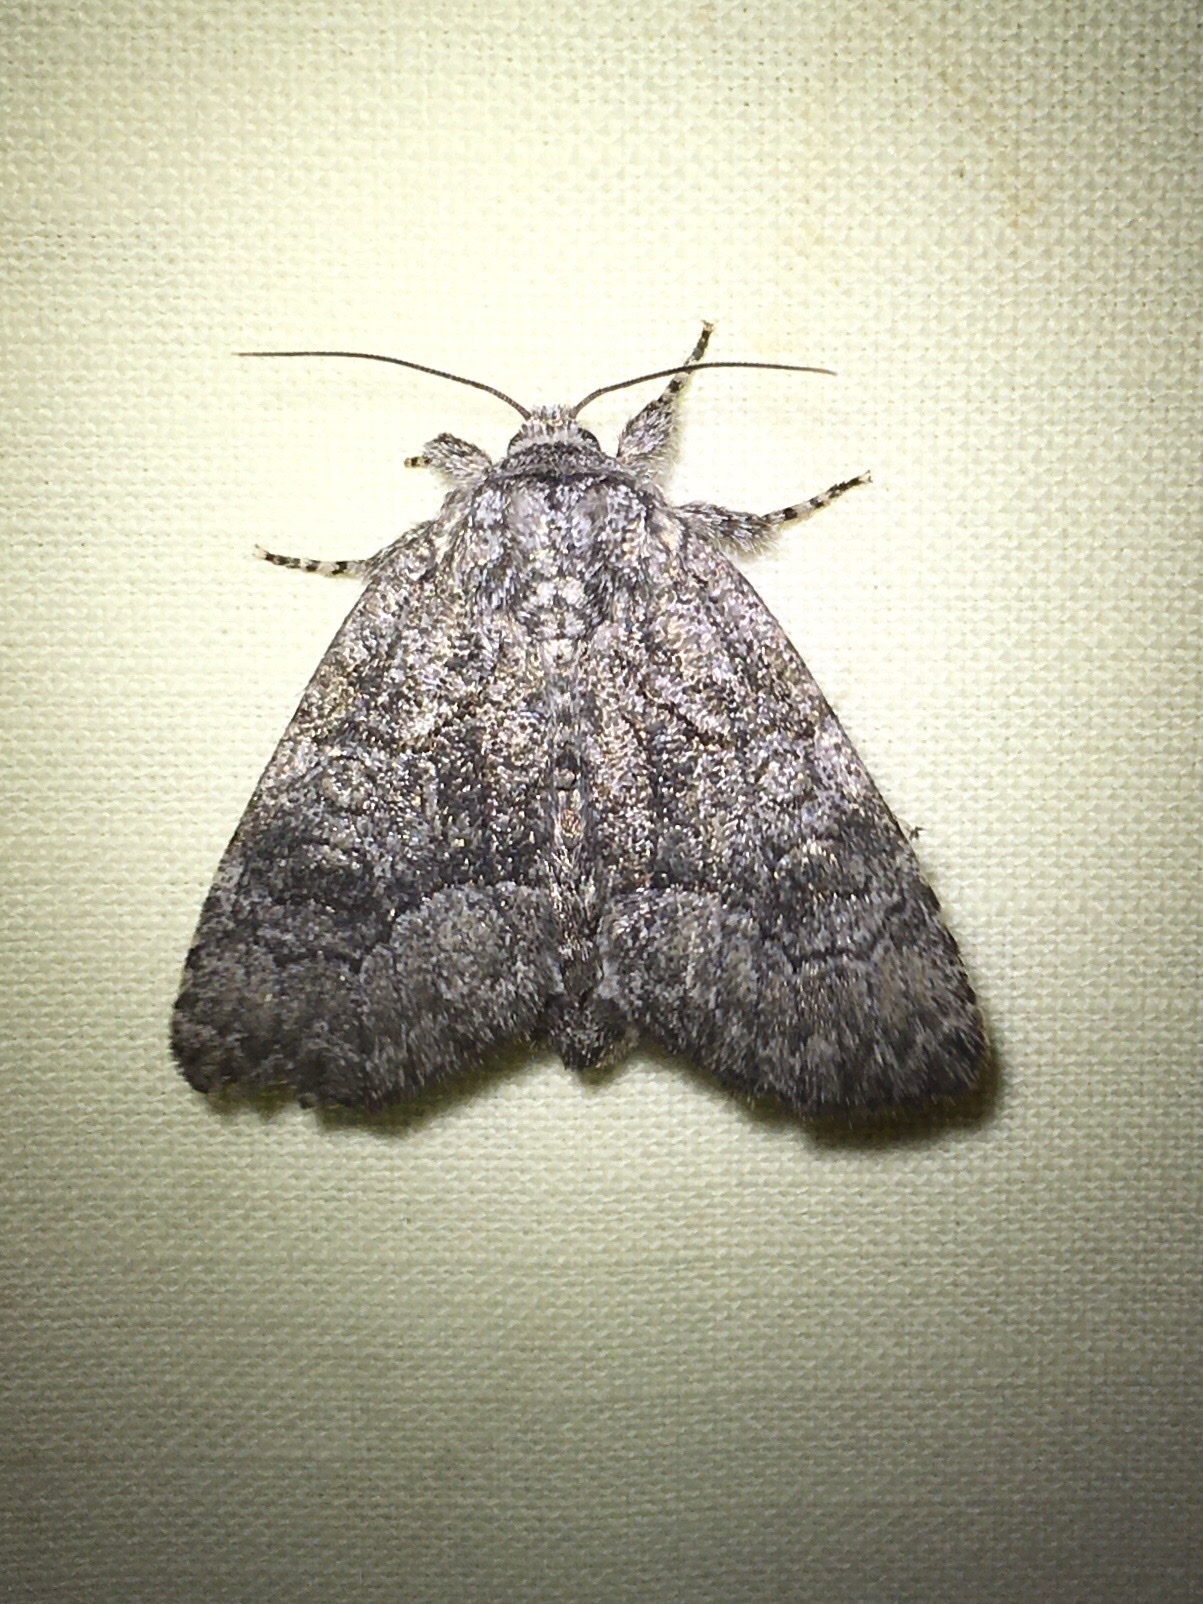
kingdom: Animalia
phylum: Arthropoda
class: Insecta
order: Lepidoptera
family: Noctuidae
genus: Raphia
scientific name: Raphia frater
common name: Brother
